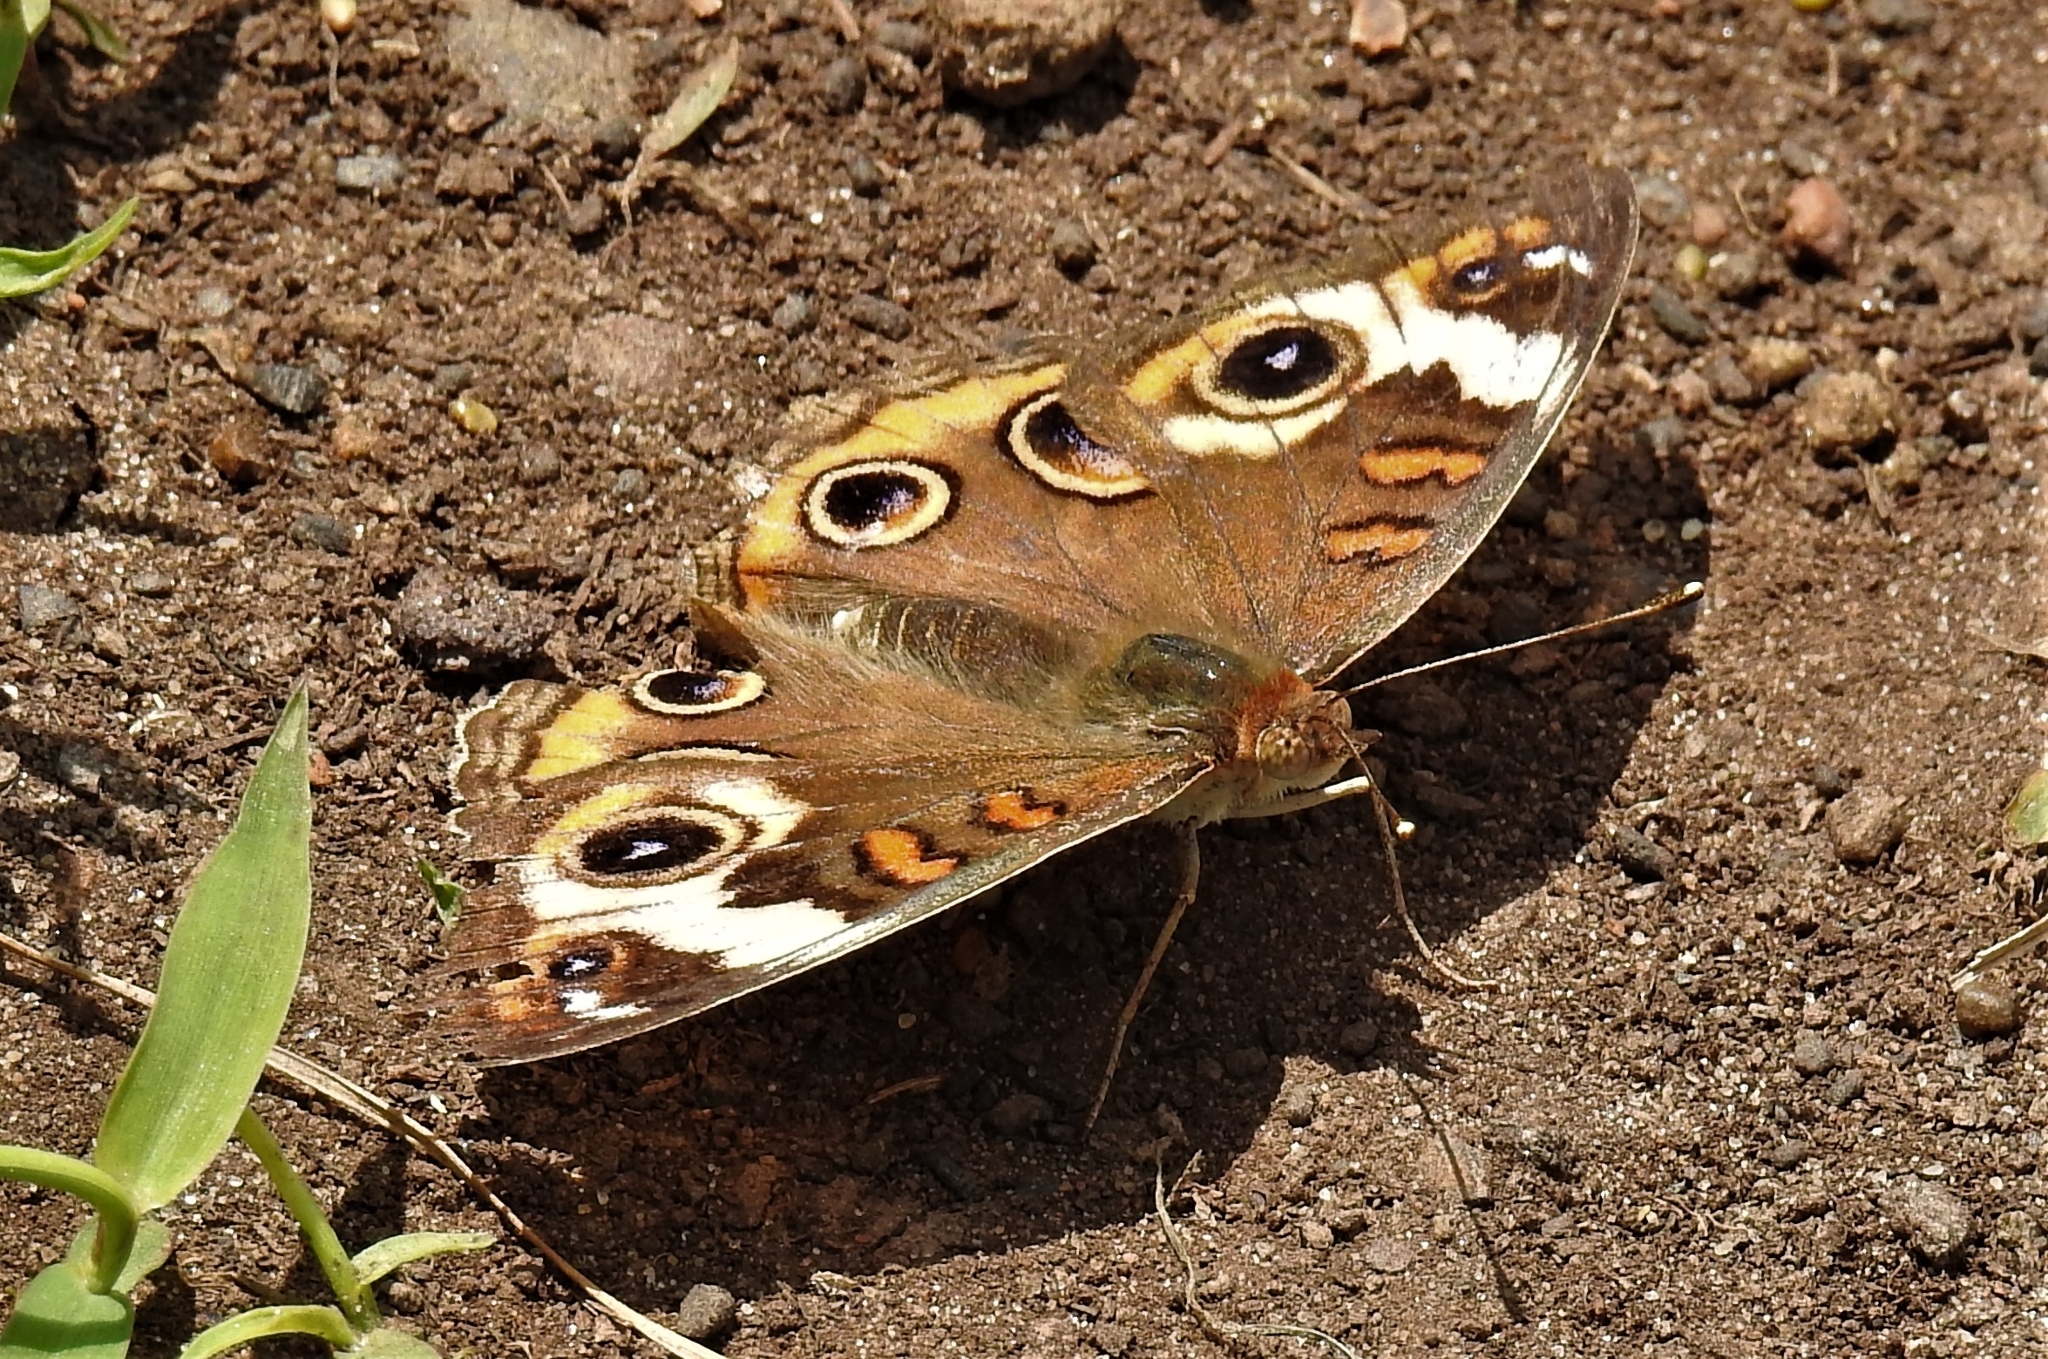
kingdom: Animalia
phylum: Arthropoda
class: Insecta
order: Lepidoptera
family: Nymphalidae
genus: Junonia
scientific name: Junonia coenia
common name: Common buckeye
